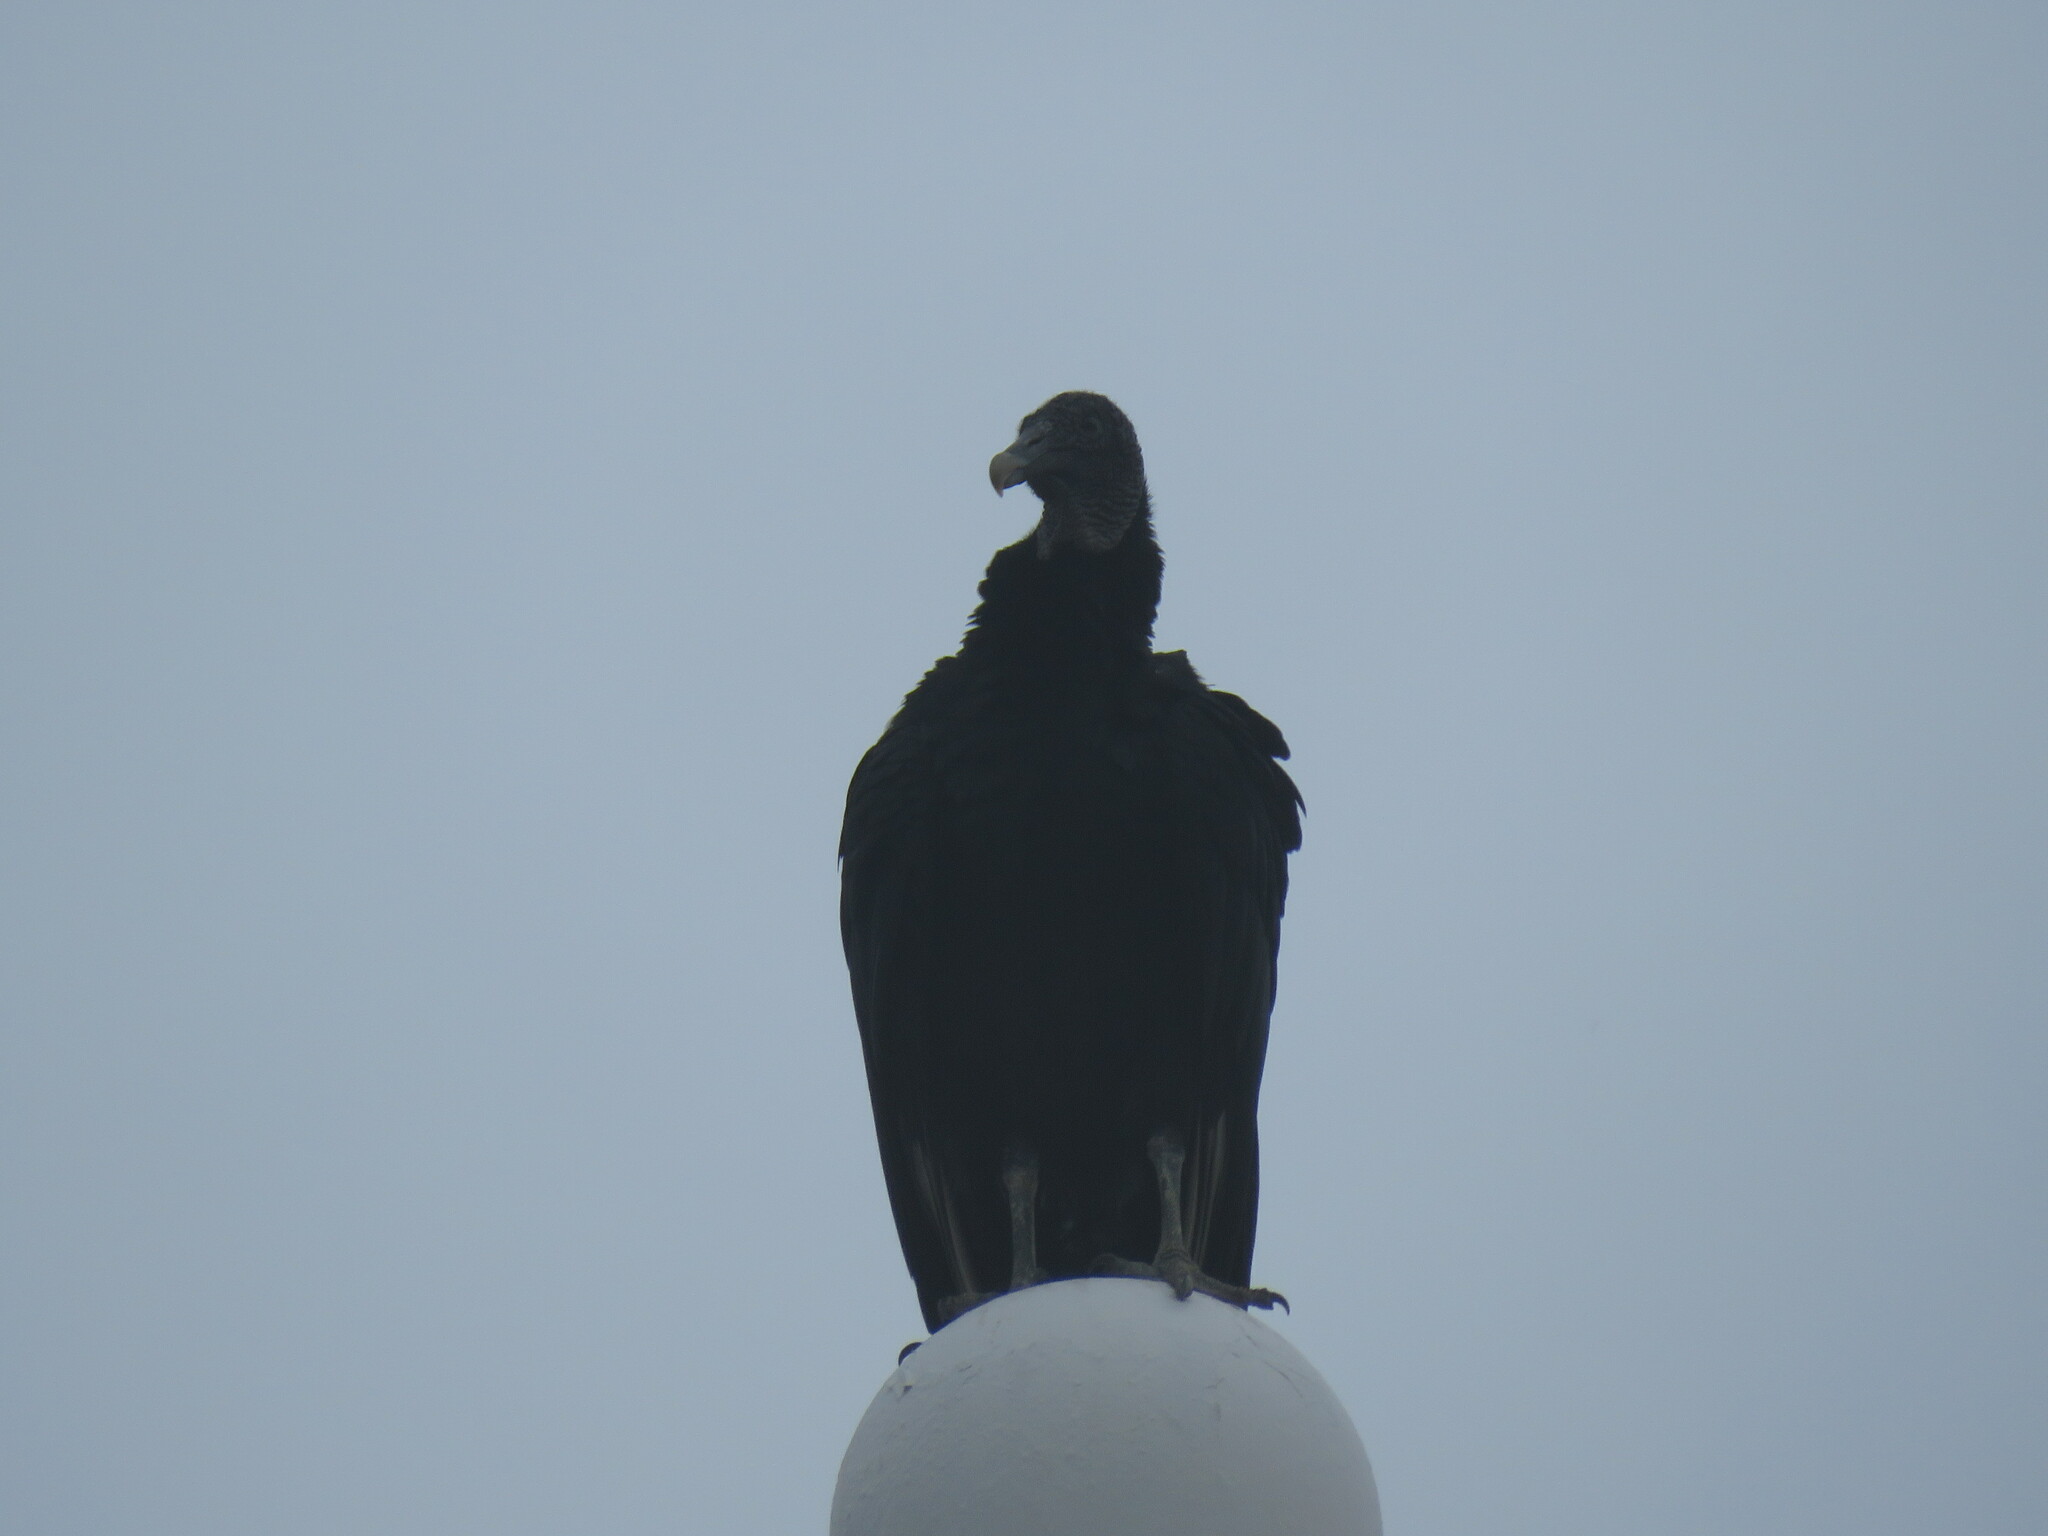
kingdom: Animalia
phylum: Chordata
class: Aves
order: Accipitriformes
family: Cathartidae
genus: Coragyps
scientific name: Coragyps atratus
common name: Black vulture
